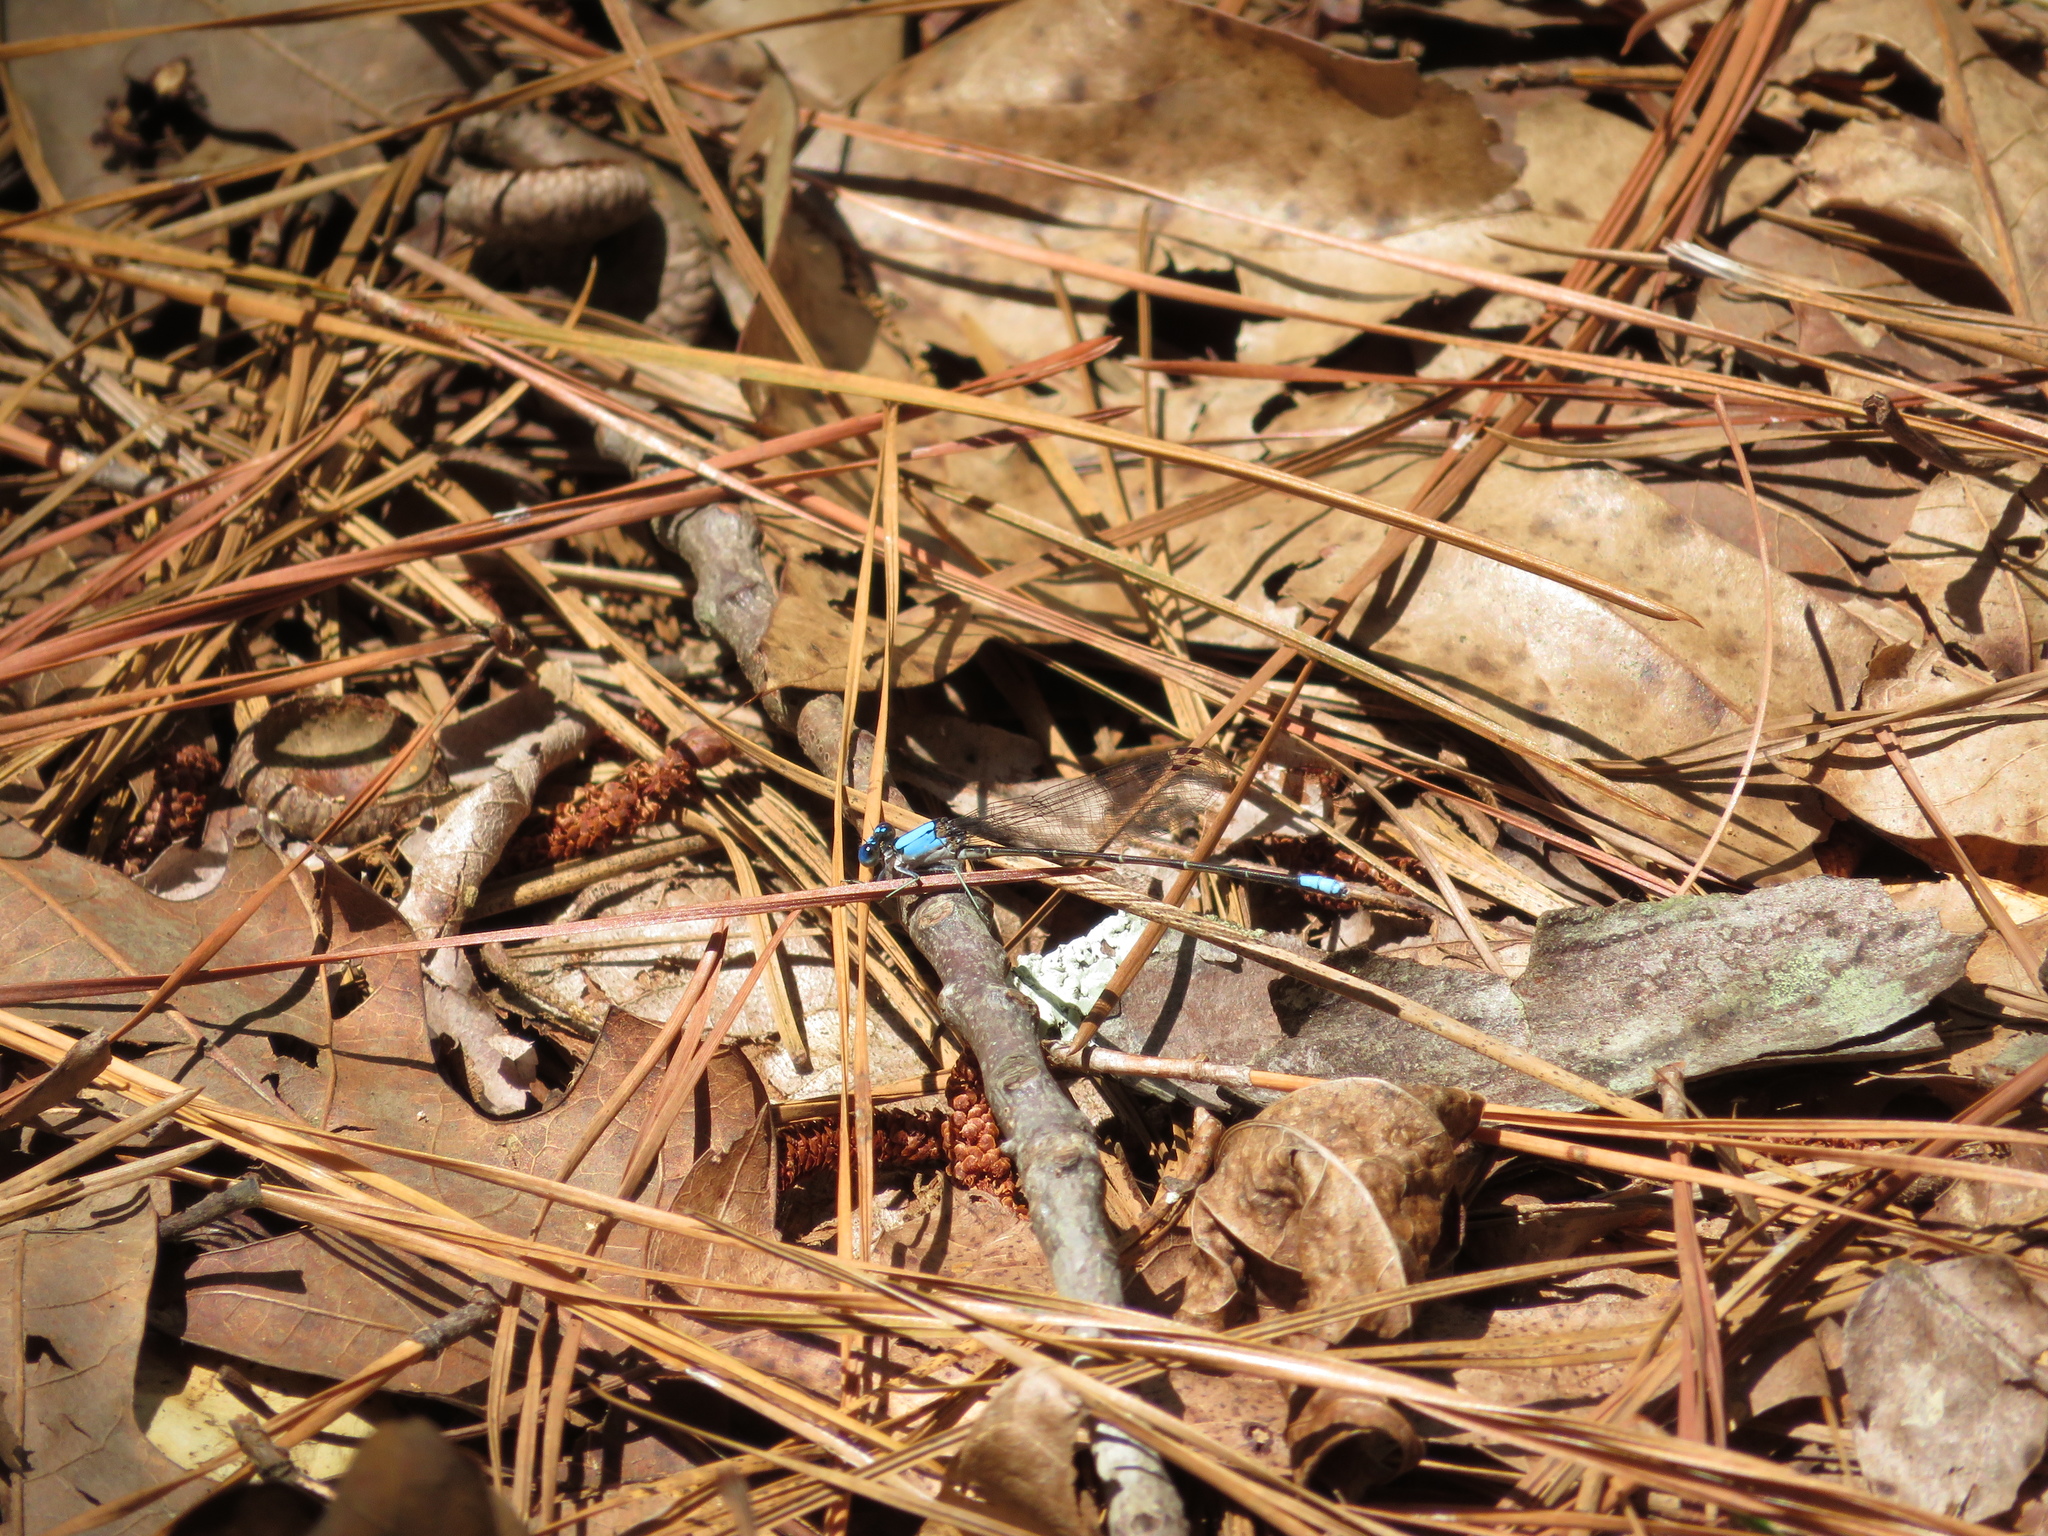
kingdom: Animalia
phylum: Arthropoda
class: Insecta
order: Odonata
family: Coenagrionidae
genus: Argia
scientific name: Argia apicalis
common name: Blue-fronted dancer
